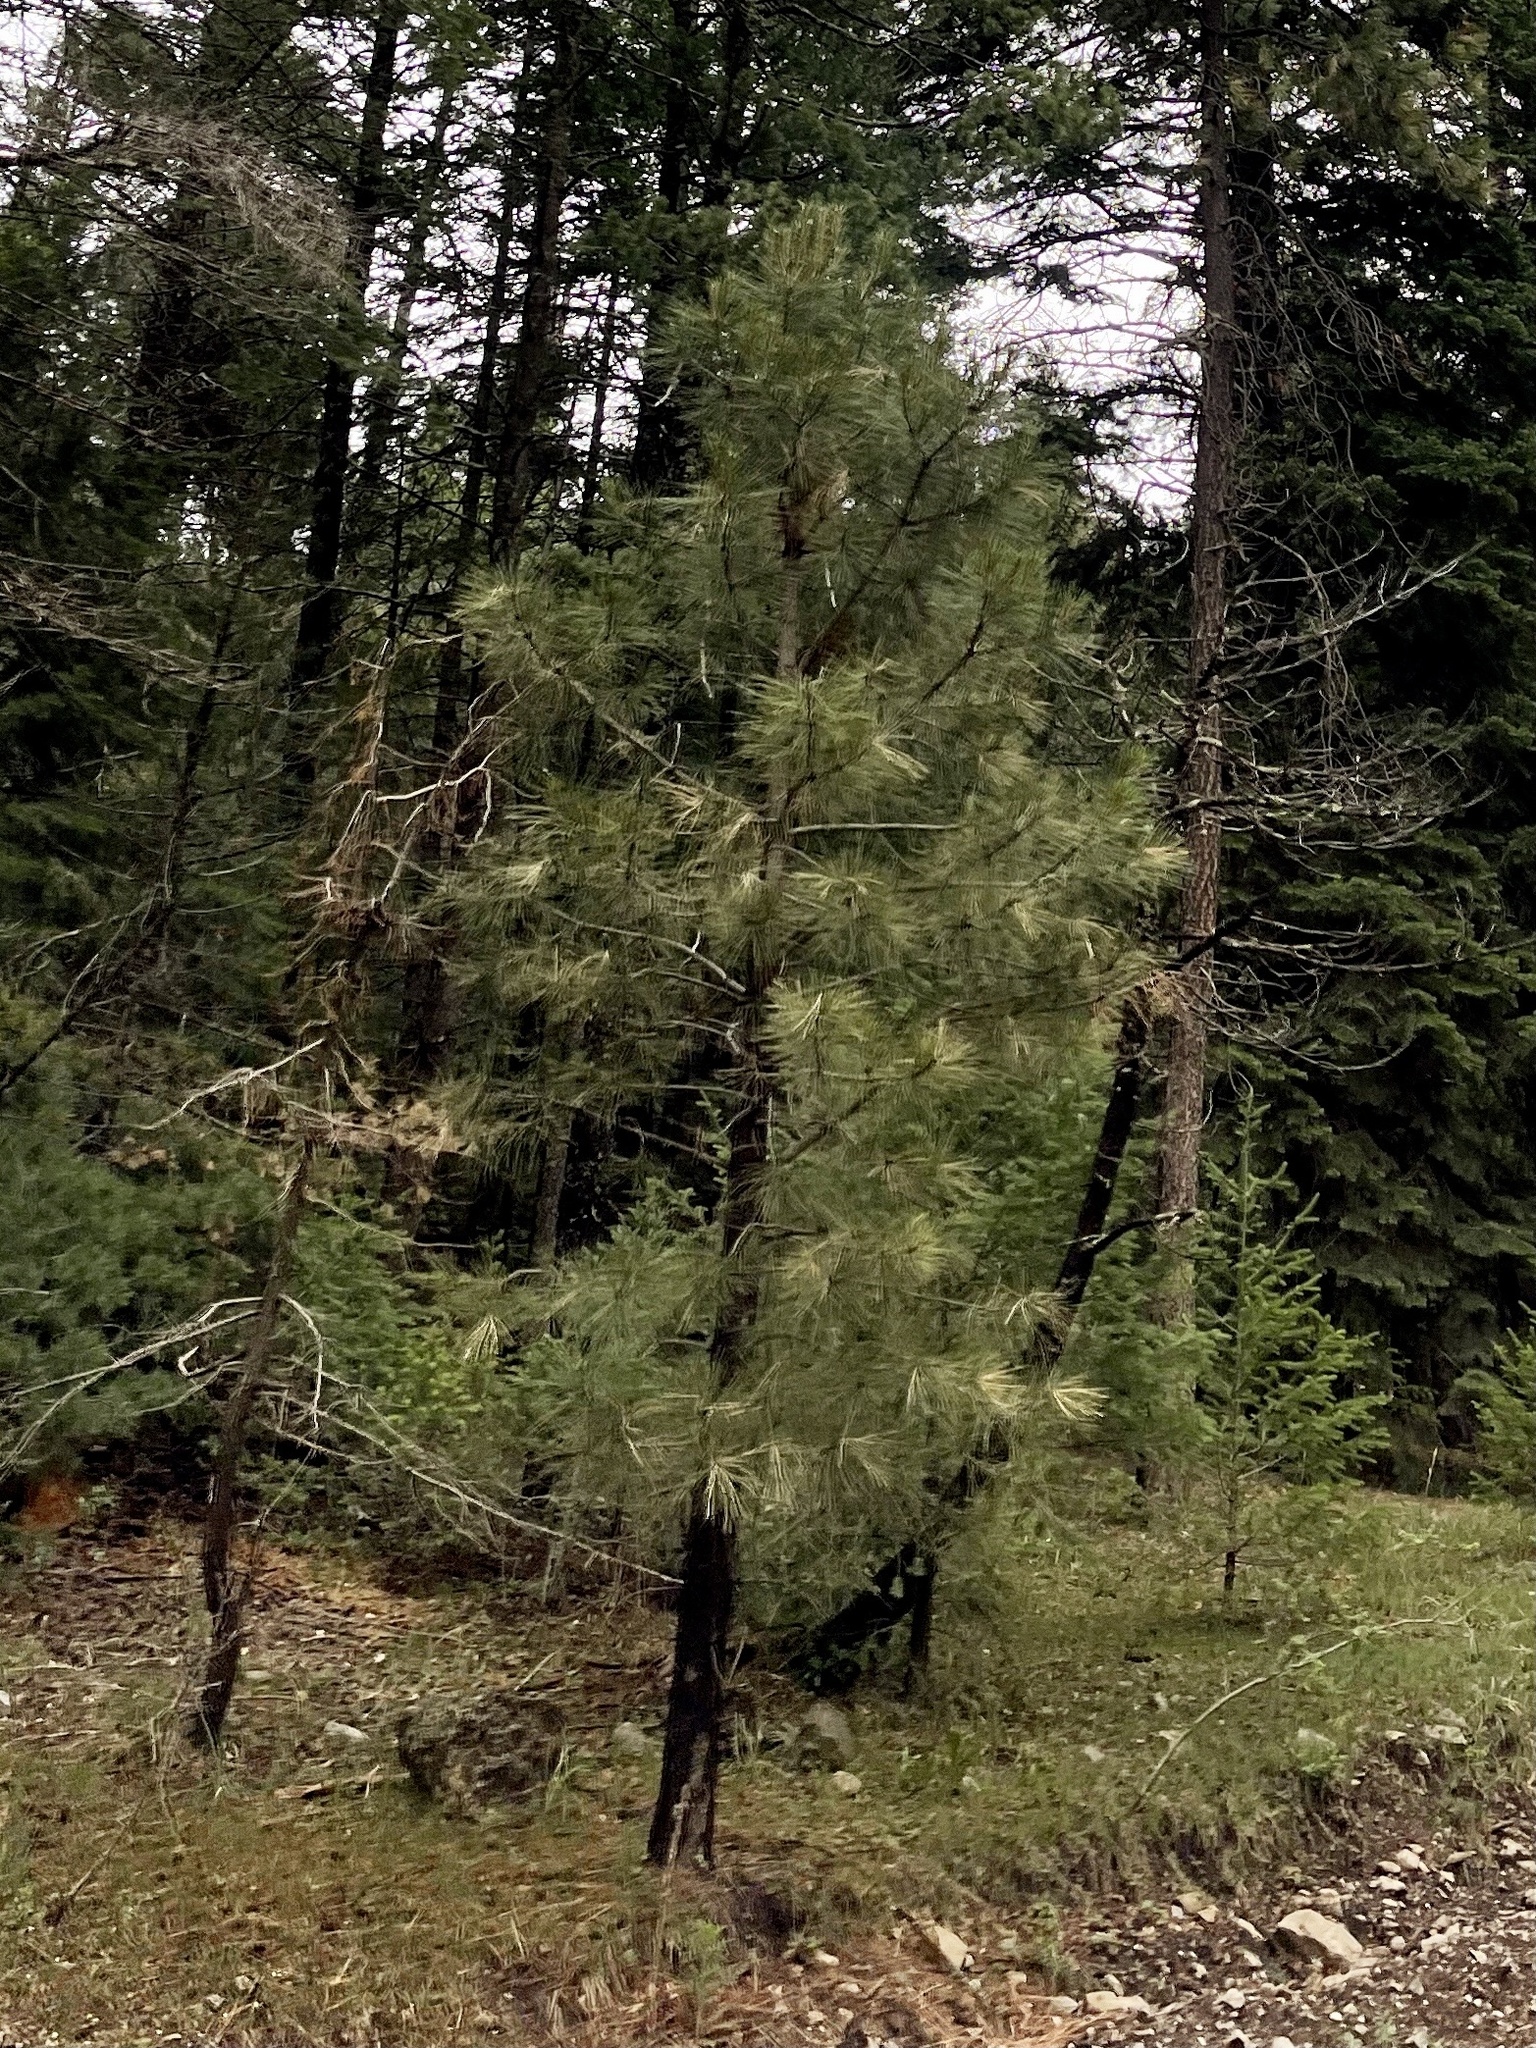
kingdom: Plantae
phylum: Tracheophyta
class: Pinopsida
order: Pinales
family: Pinaceae
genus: Pinus
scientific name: Pinus ponderosa
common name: Western yellow-pine
